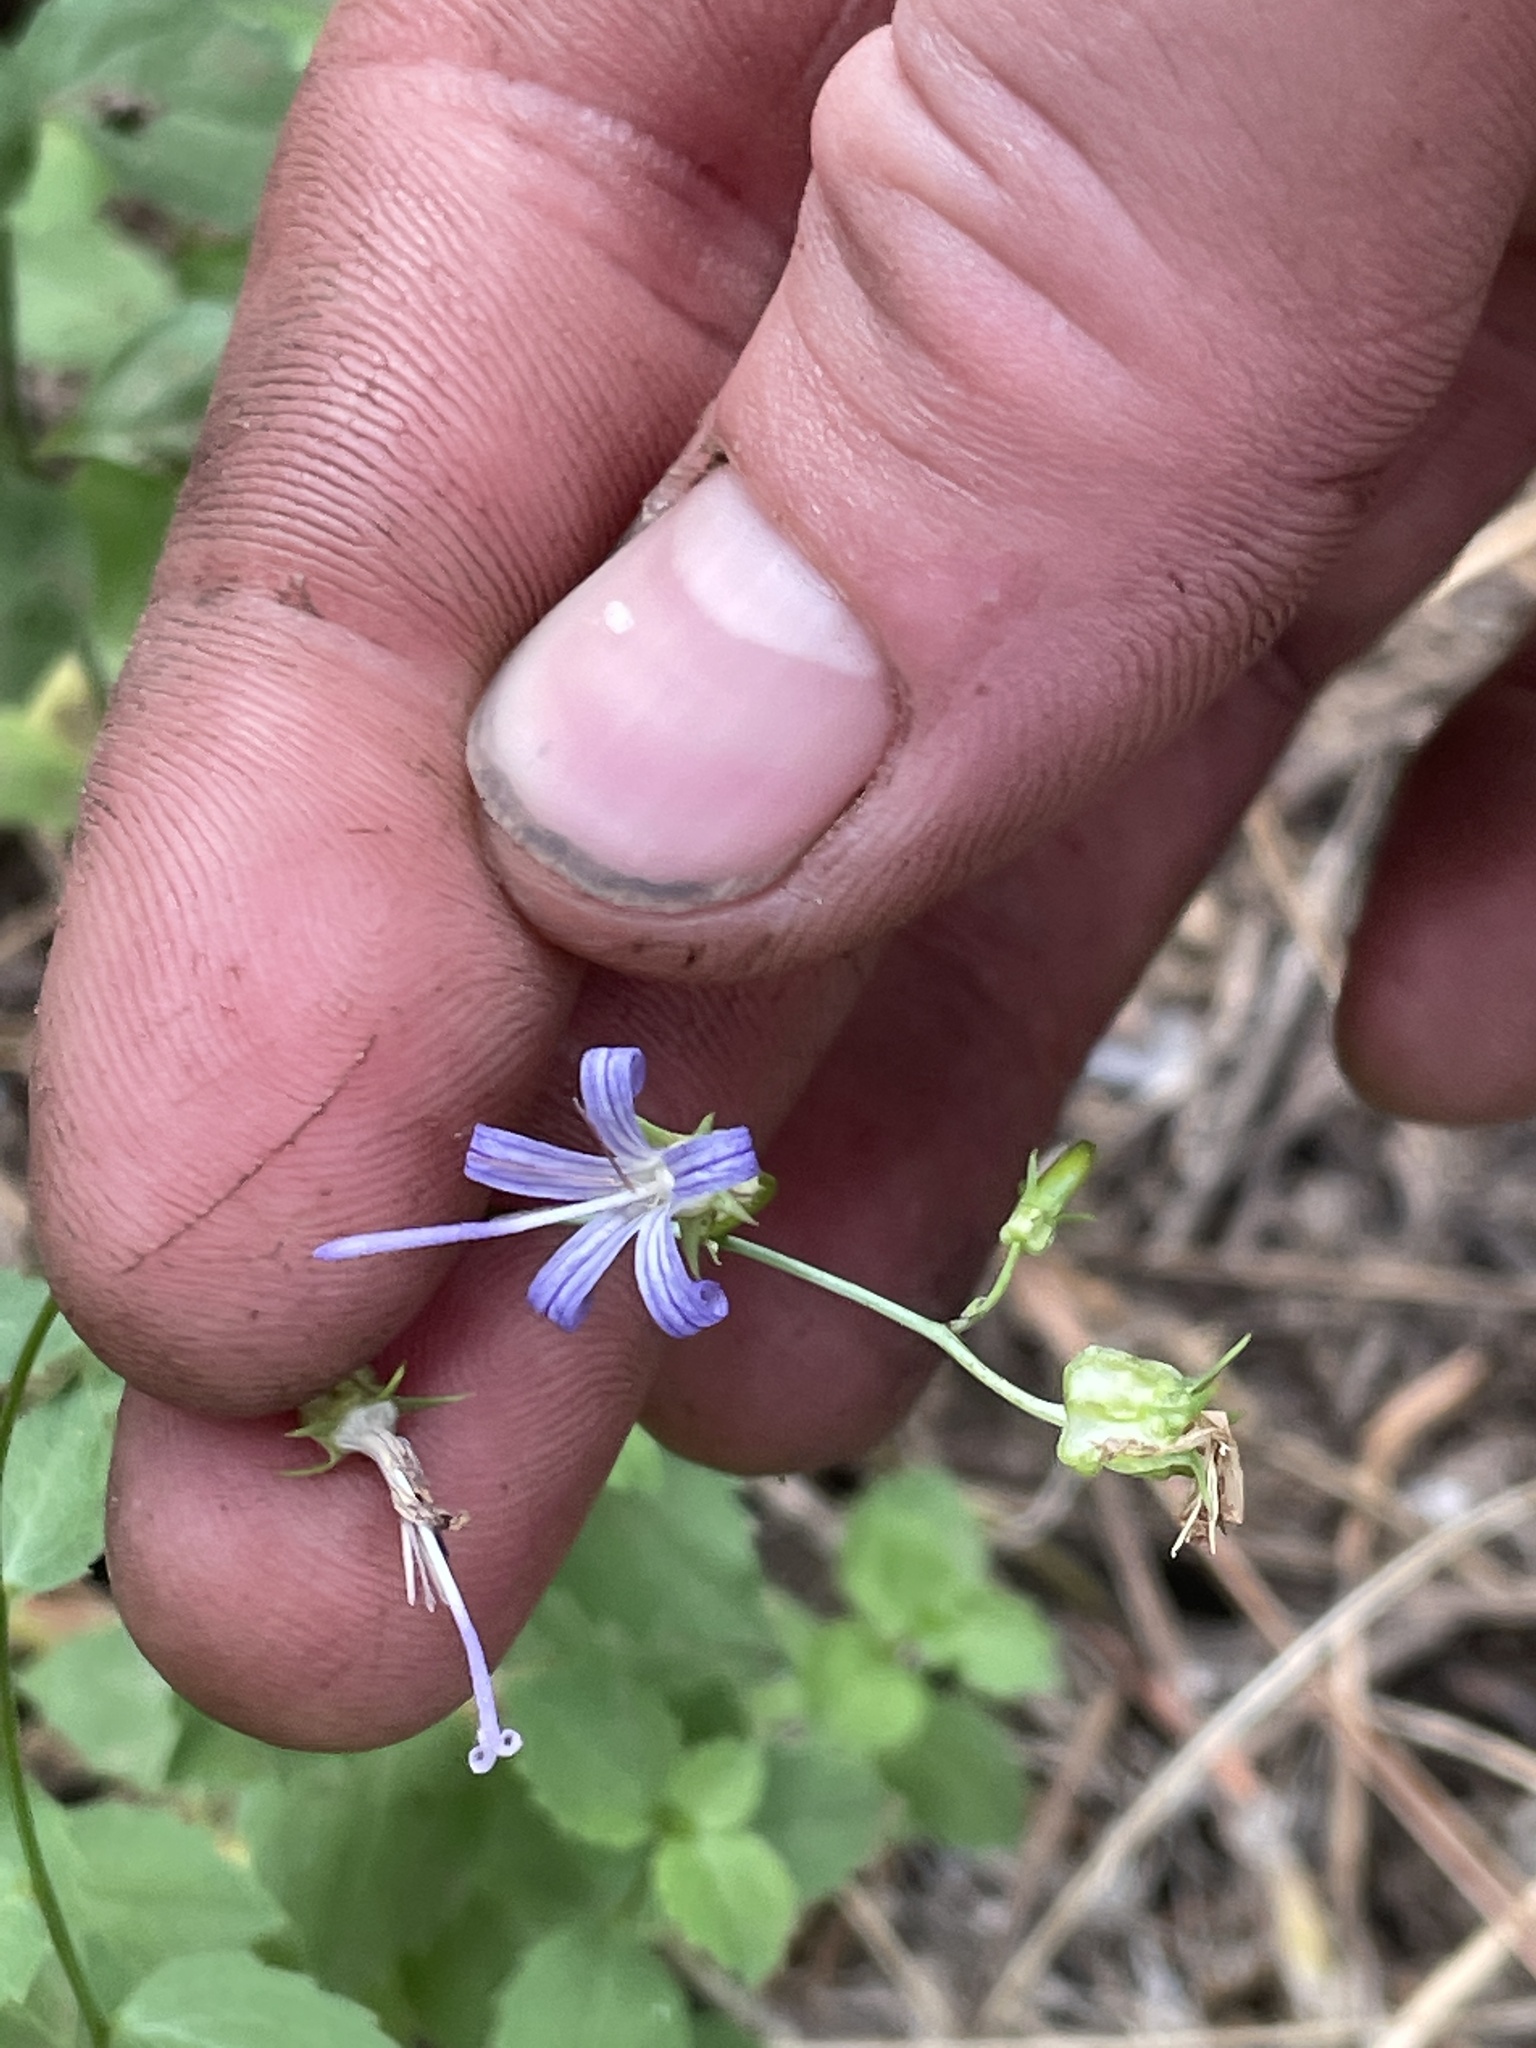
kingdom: Plantae
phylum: Tracheophyta
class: Magnoliopsida
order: Asterales
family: Campanulaceae
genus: Smithiastrum
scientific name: Smithiastrum prenanthoides
